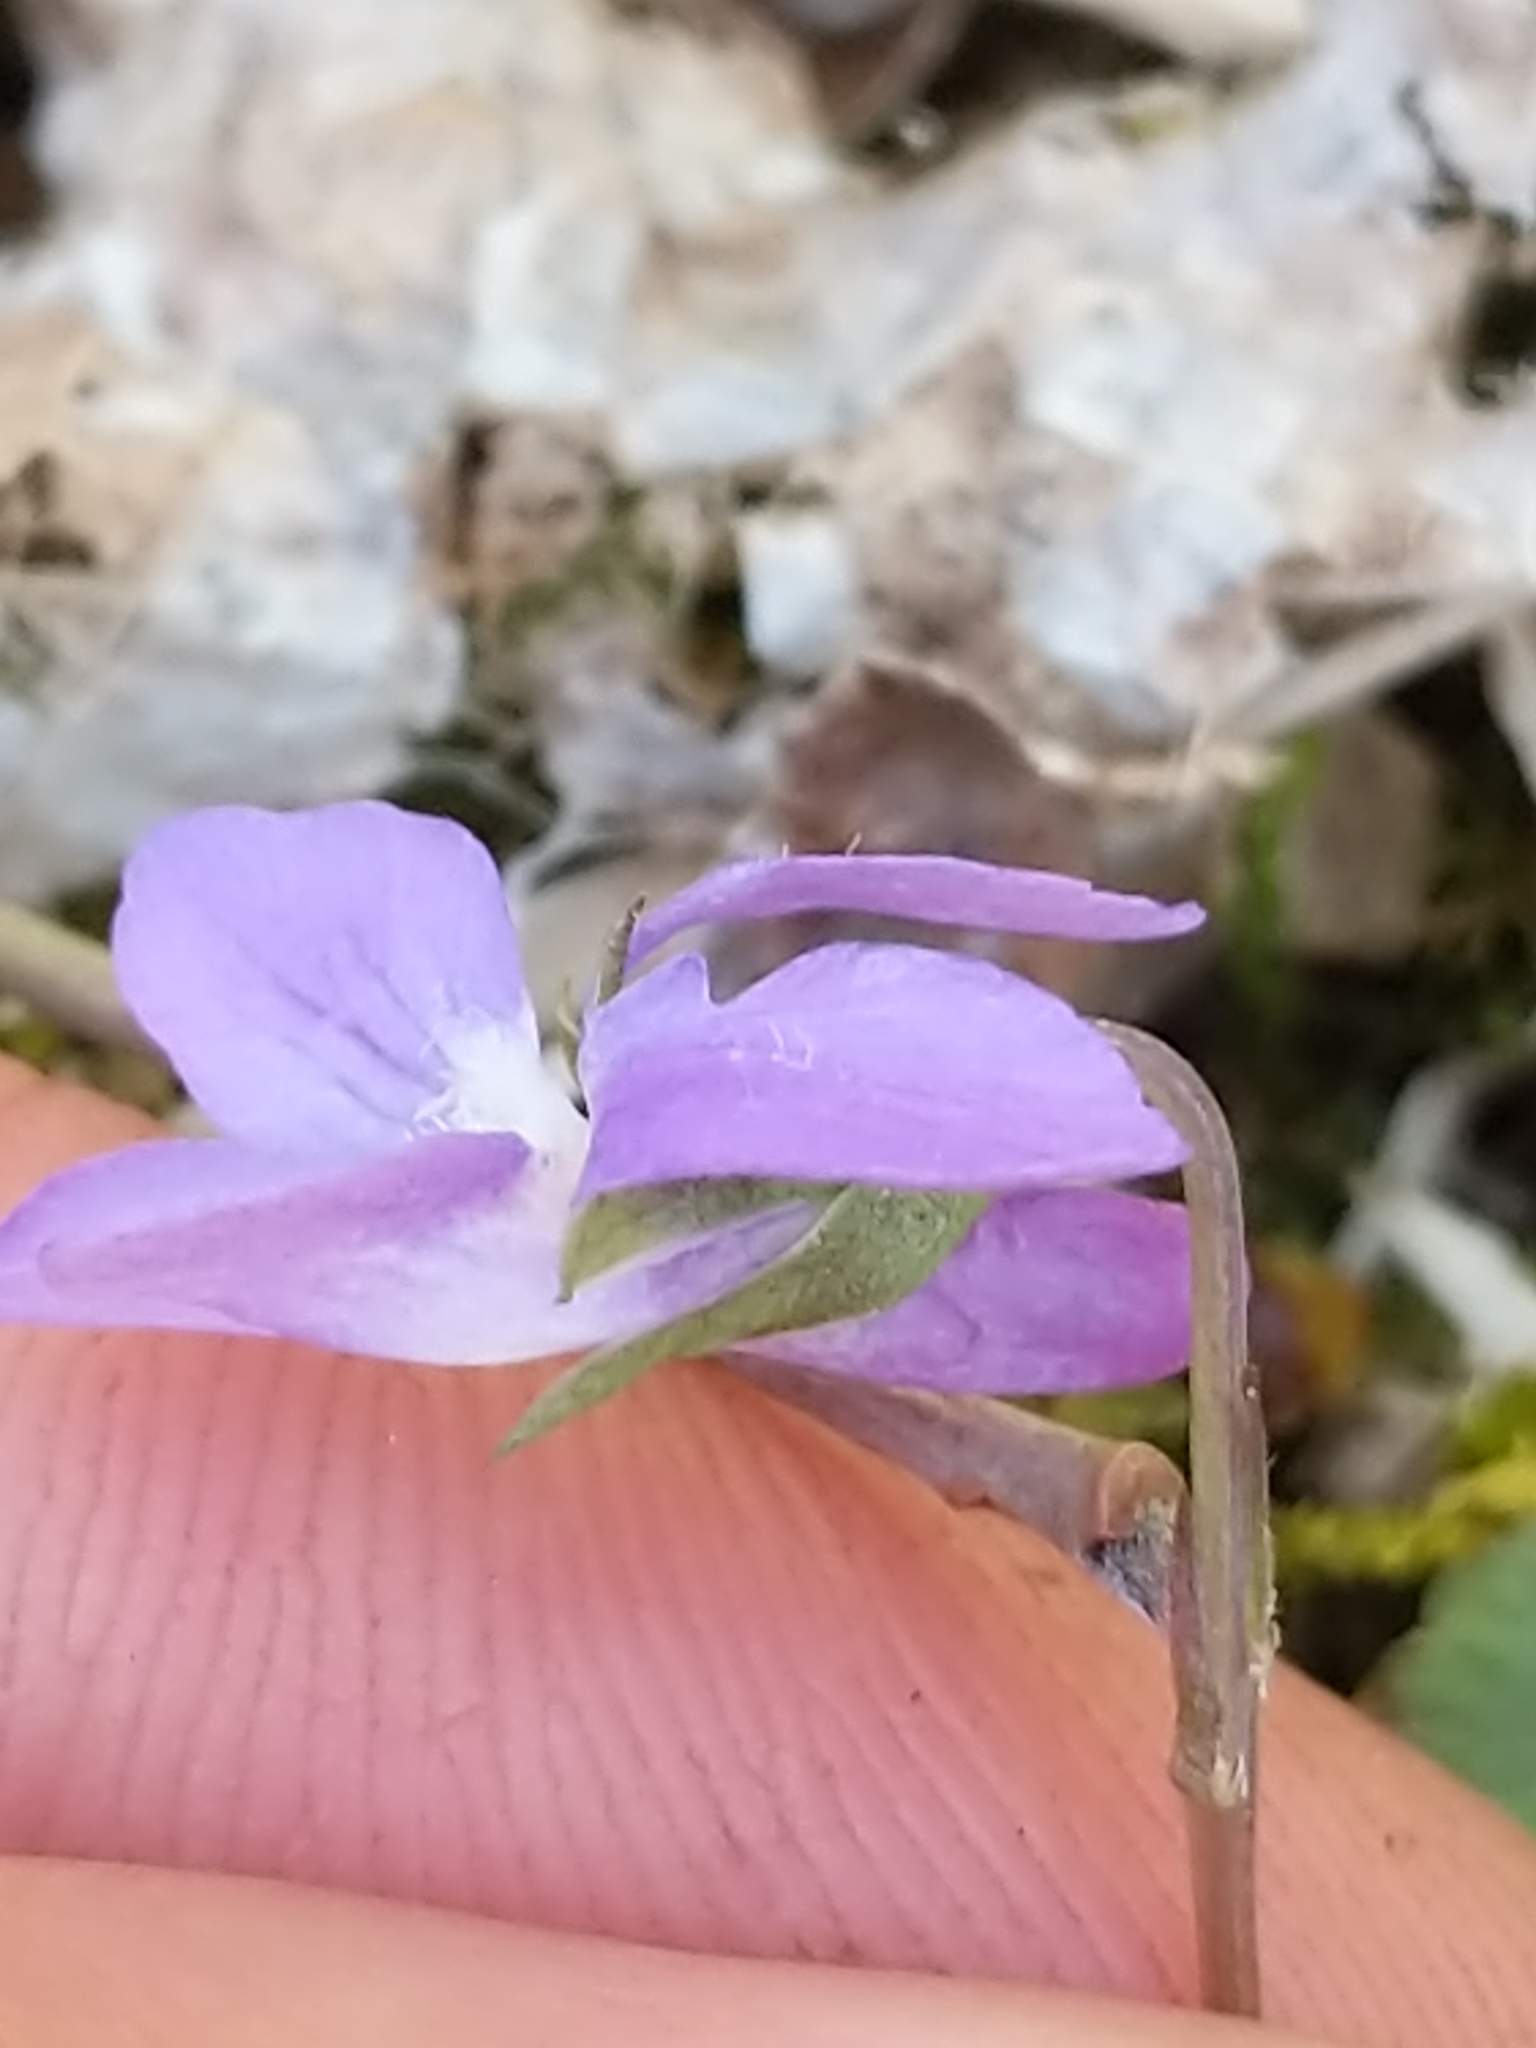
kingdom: Plantae
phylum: Tracheophyta
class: Magnoliopsida
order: Malpighiales
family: Violaceae
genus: Viola
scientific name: Viola labradorica
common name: Labrador violet
